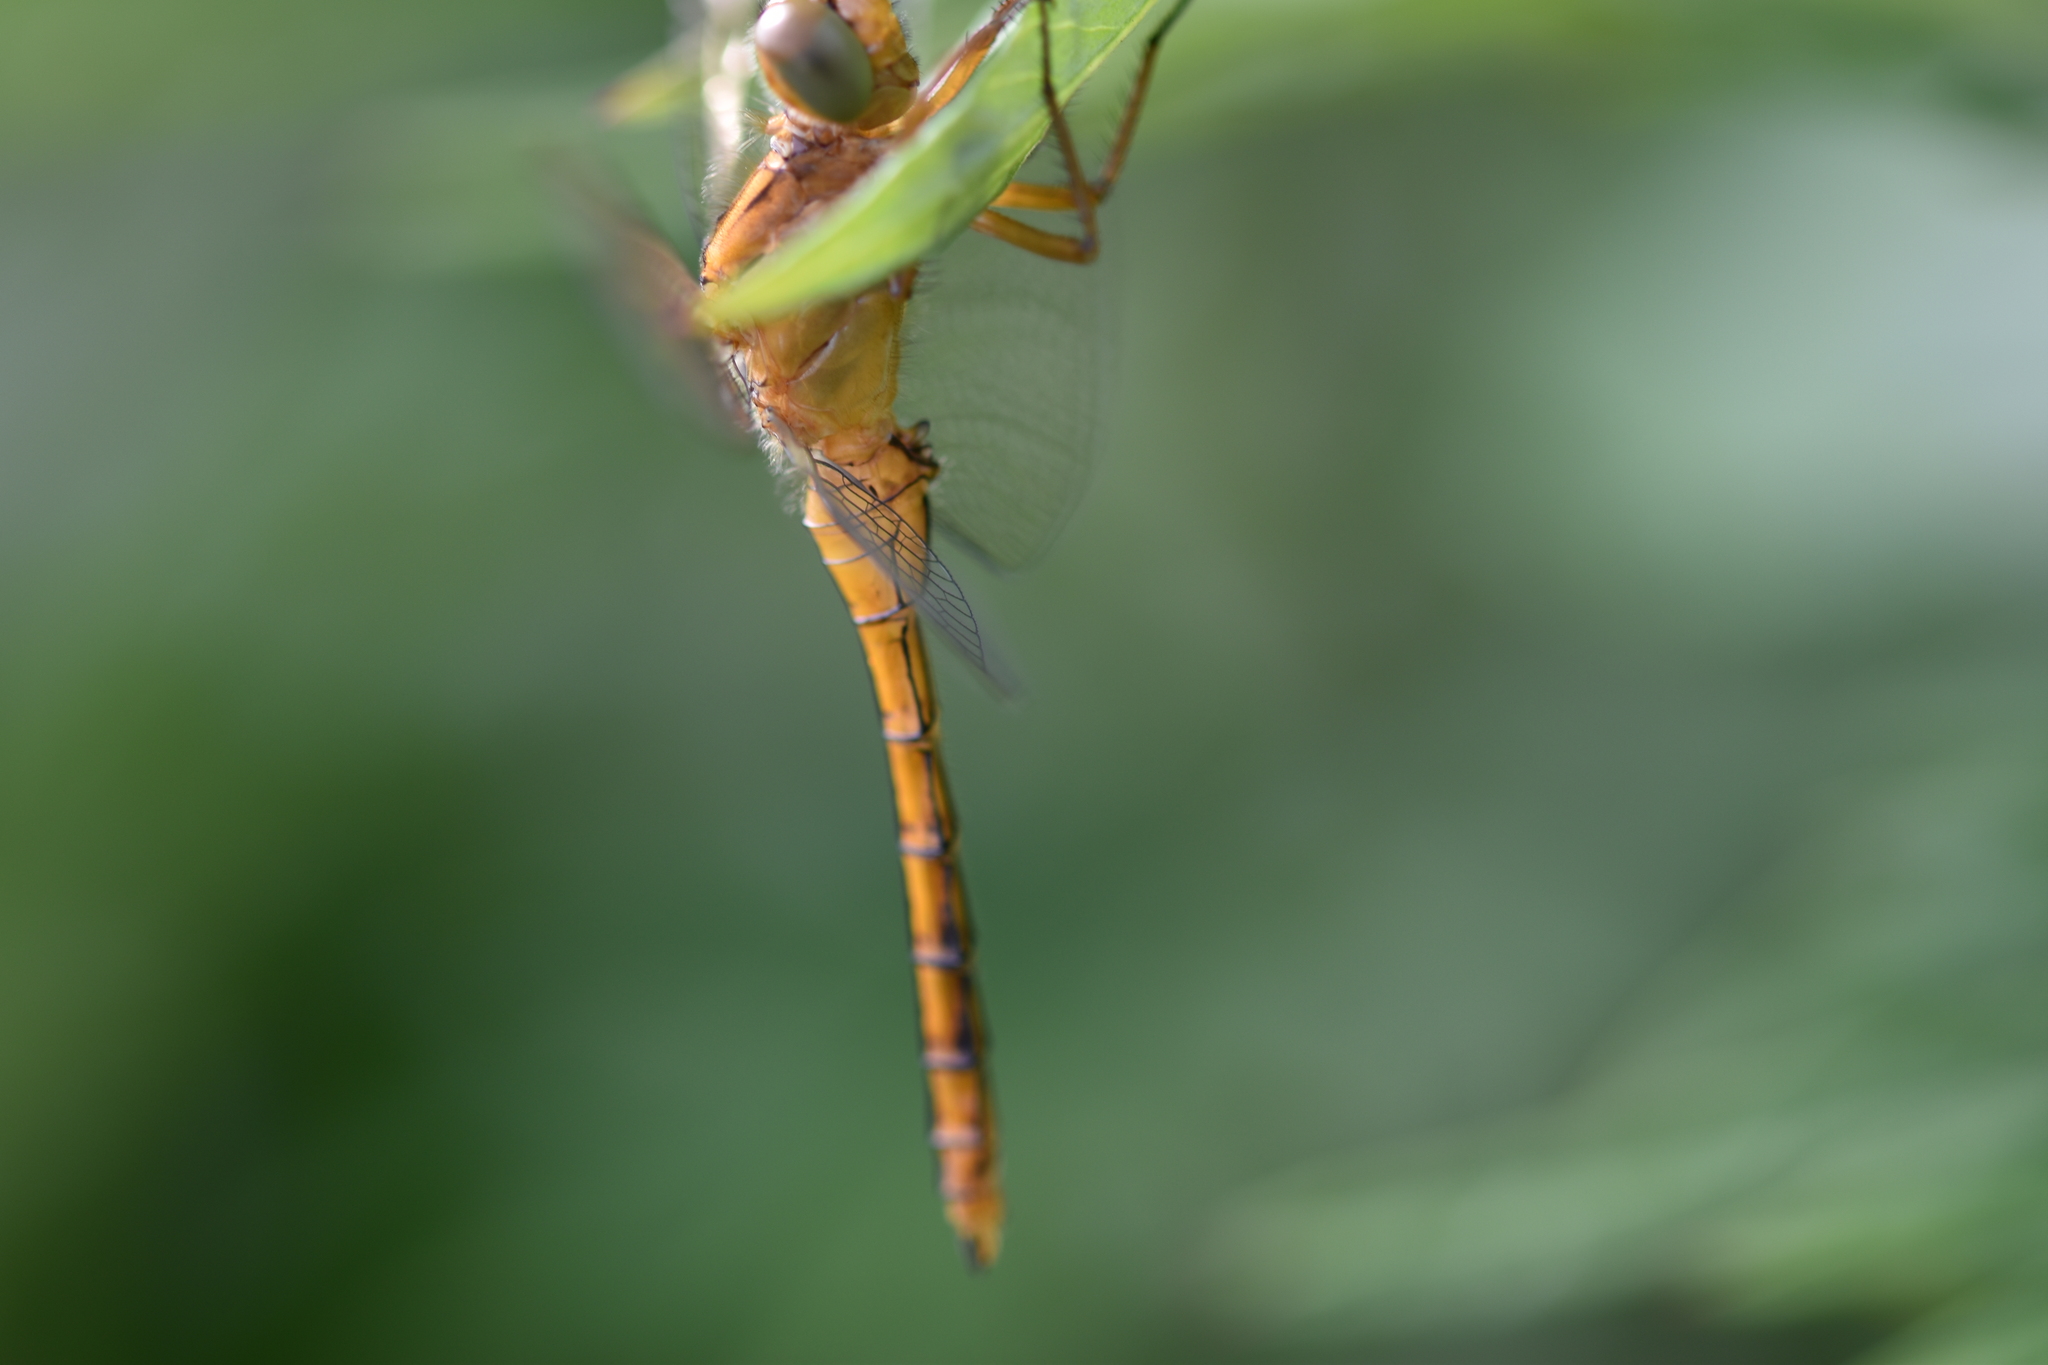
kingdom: Animalia
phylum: Arthropoda
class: Insecta
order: Odonata
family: Libellulidae
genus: Orthetrum
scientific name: Orthetrum coerulescens
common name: Keeled skimmer
